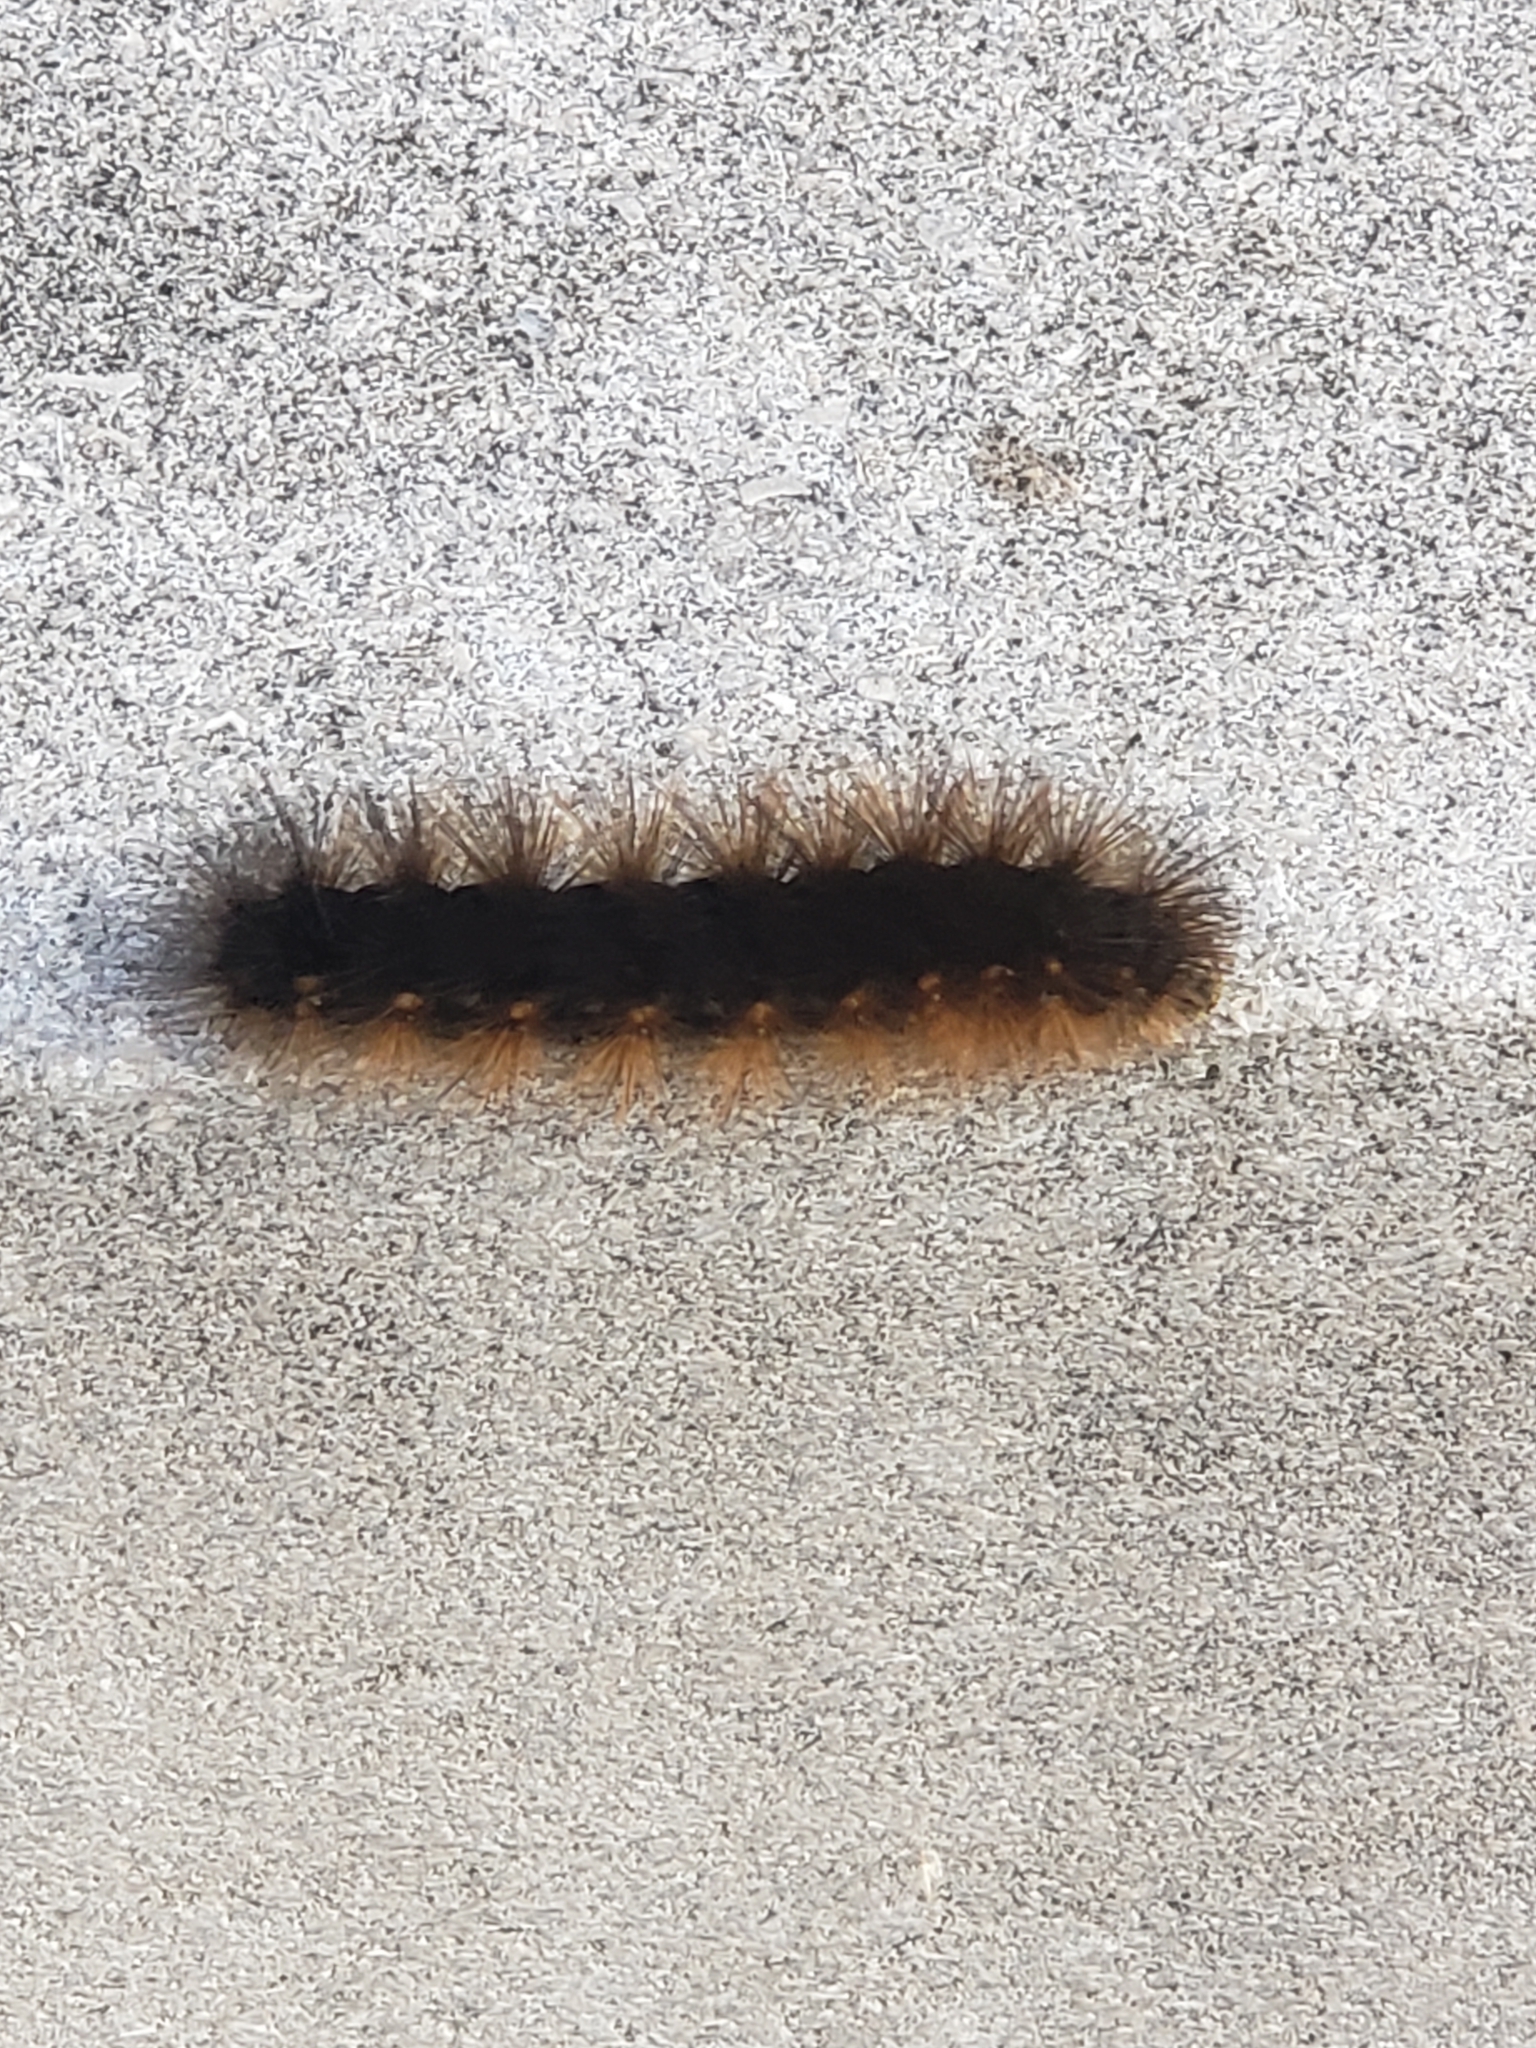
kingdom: Animalia
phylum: Arthropoda
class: Insecta
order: Lepidoptera
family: Erebidae
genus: Estigmene
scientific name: Estigmene acrea
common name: Salt marsh moth
